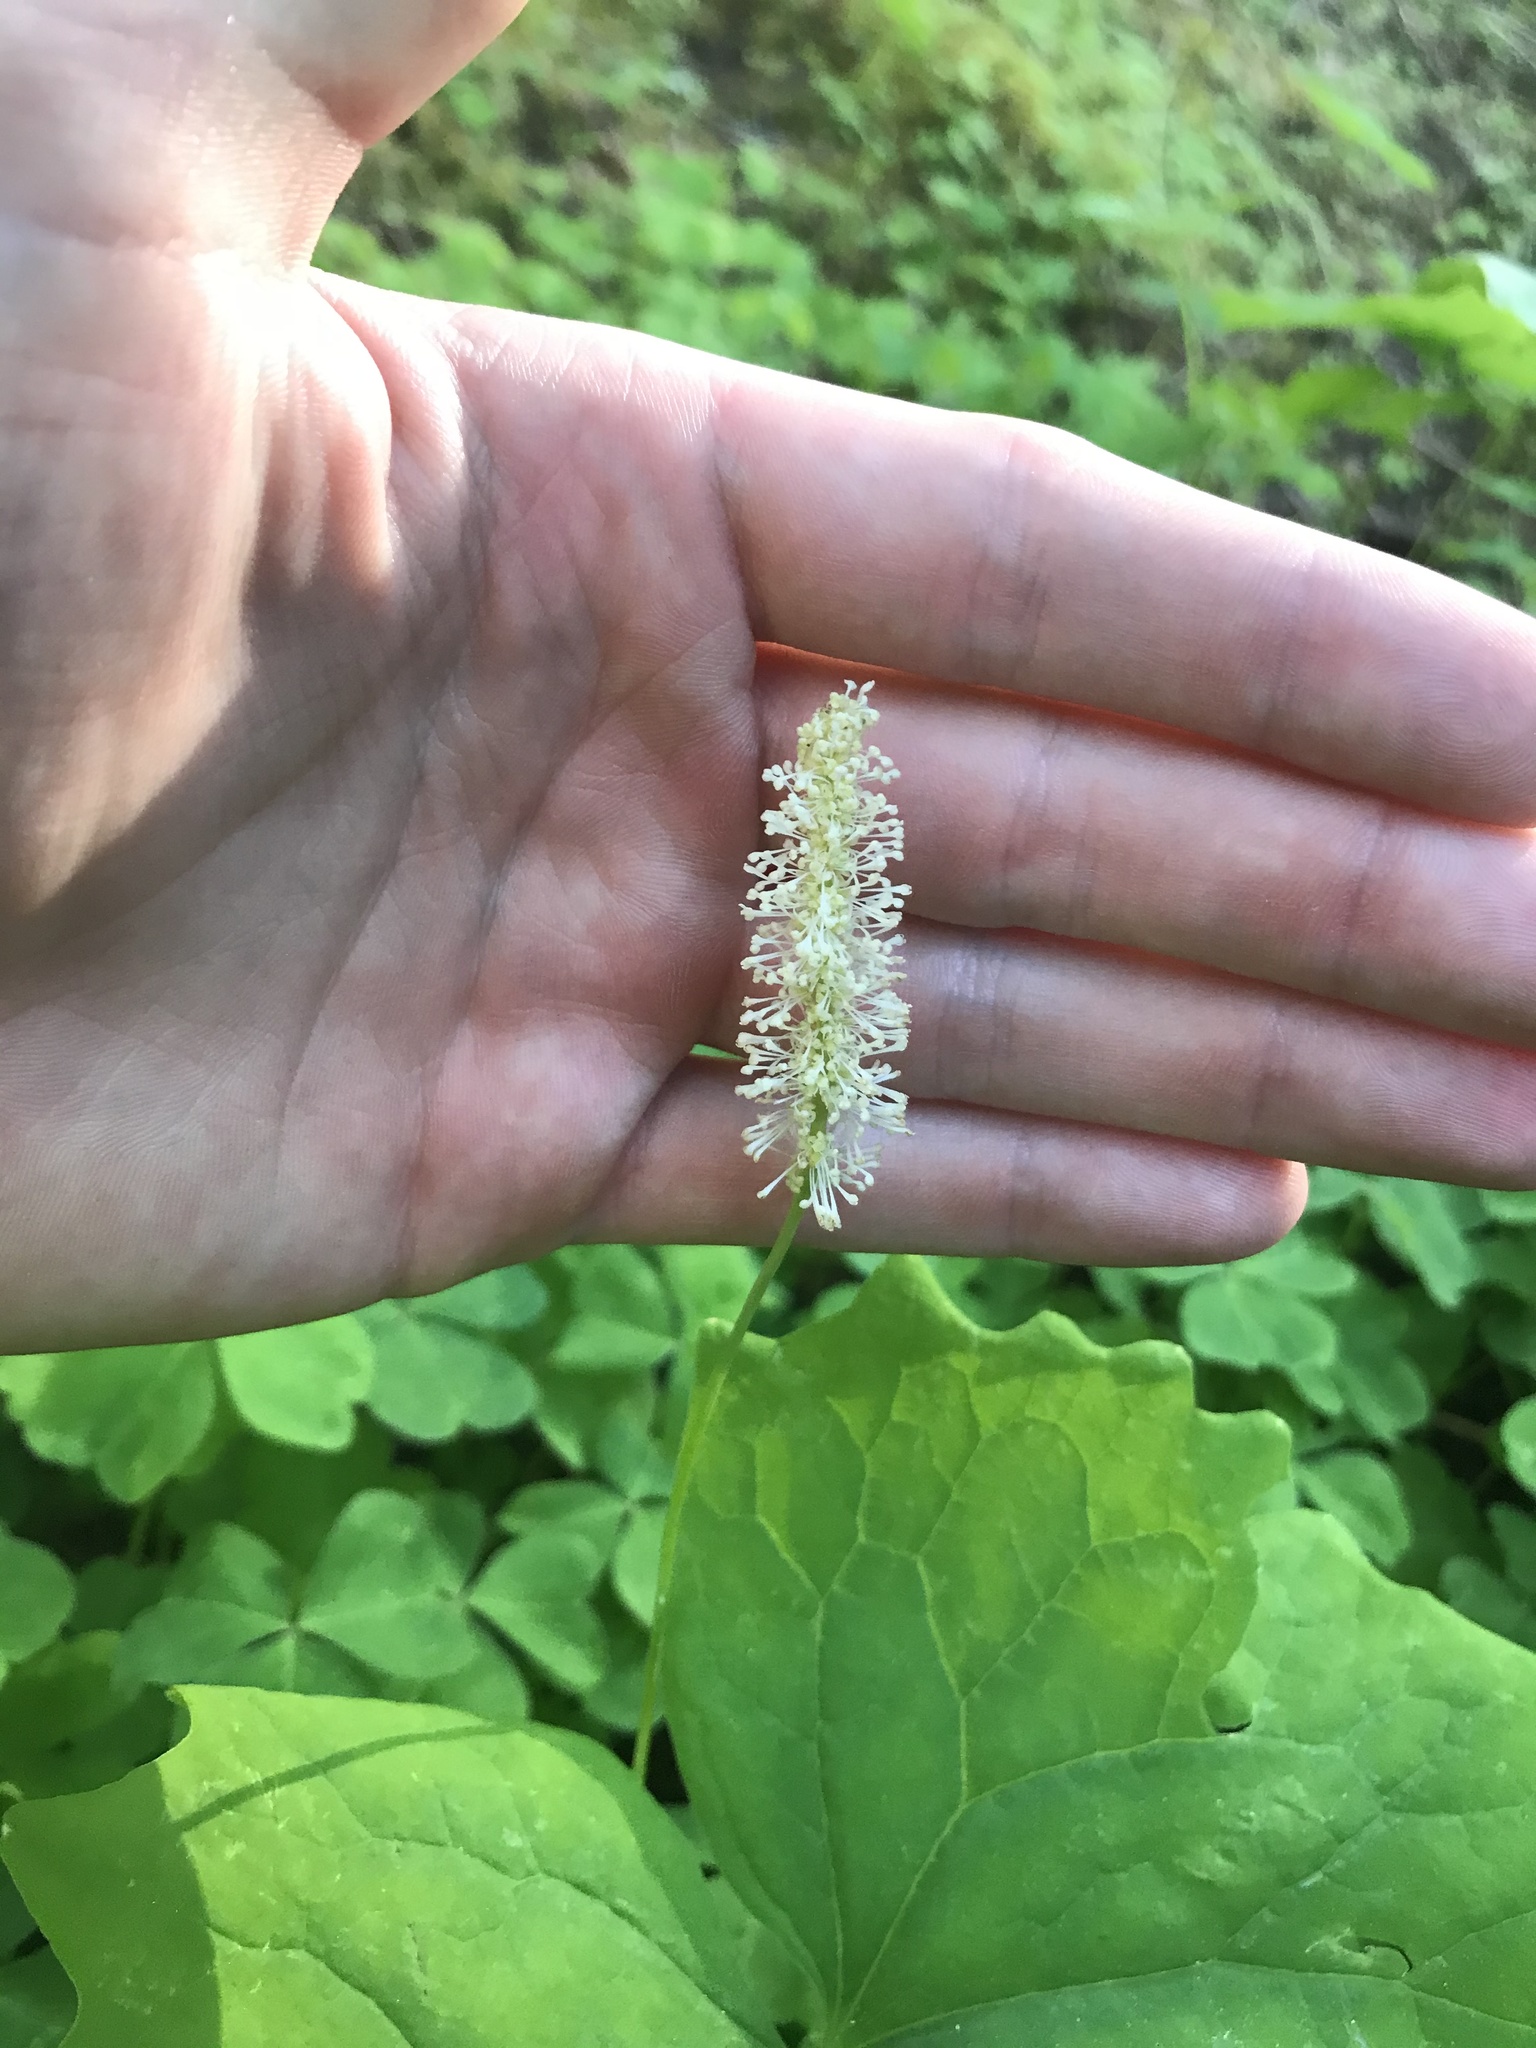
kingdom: Plantae
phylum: Tracheophyta
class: Magnoliopsida
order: Ranunculales
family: Berberidaceae
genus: Achlys
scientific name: Achlys triphylla
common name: Vanilla-leaf
